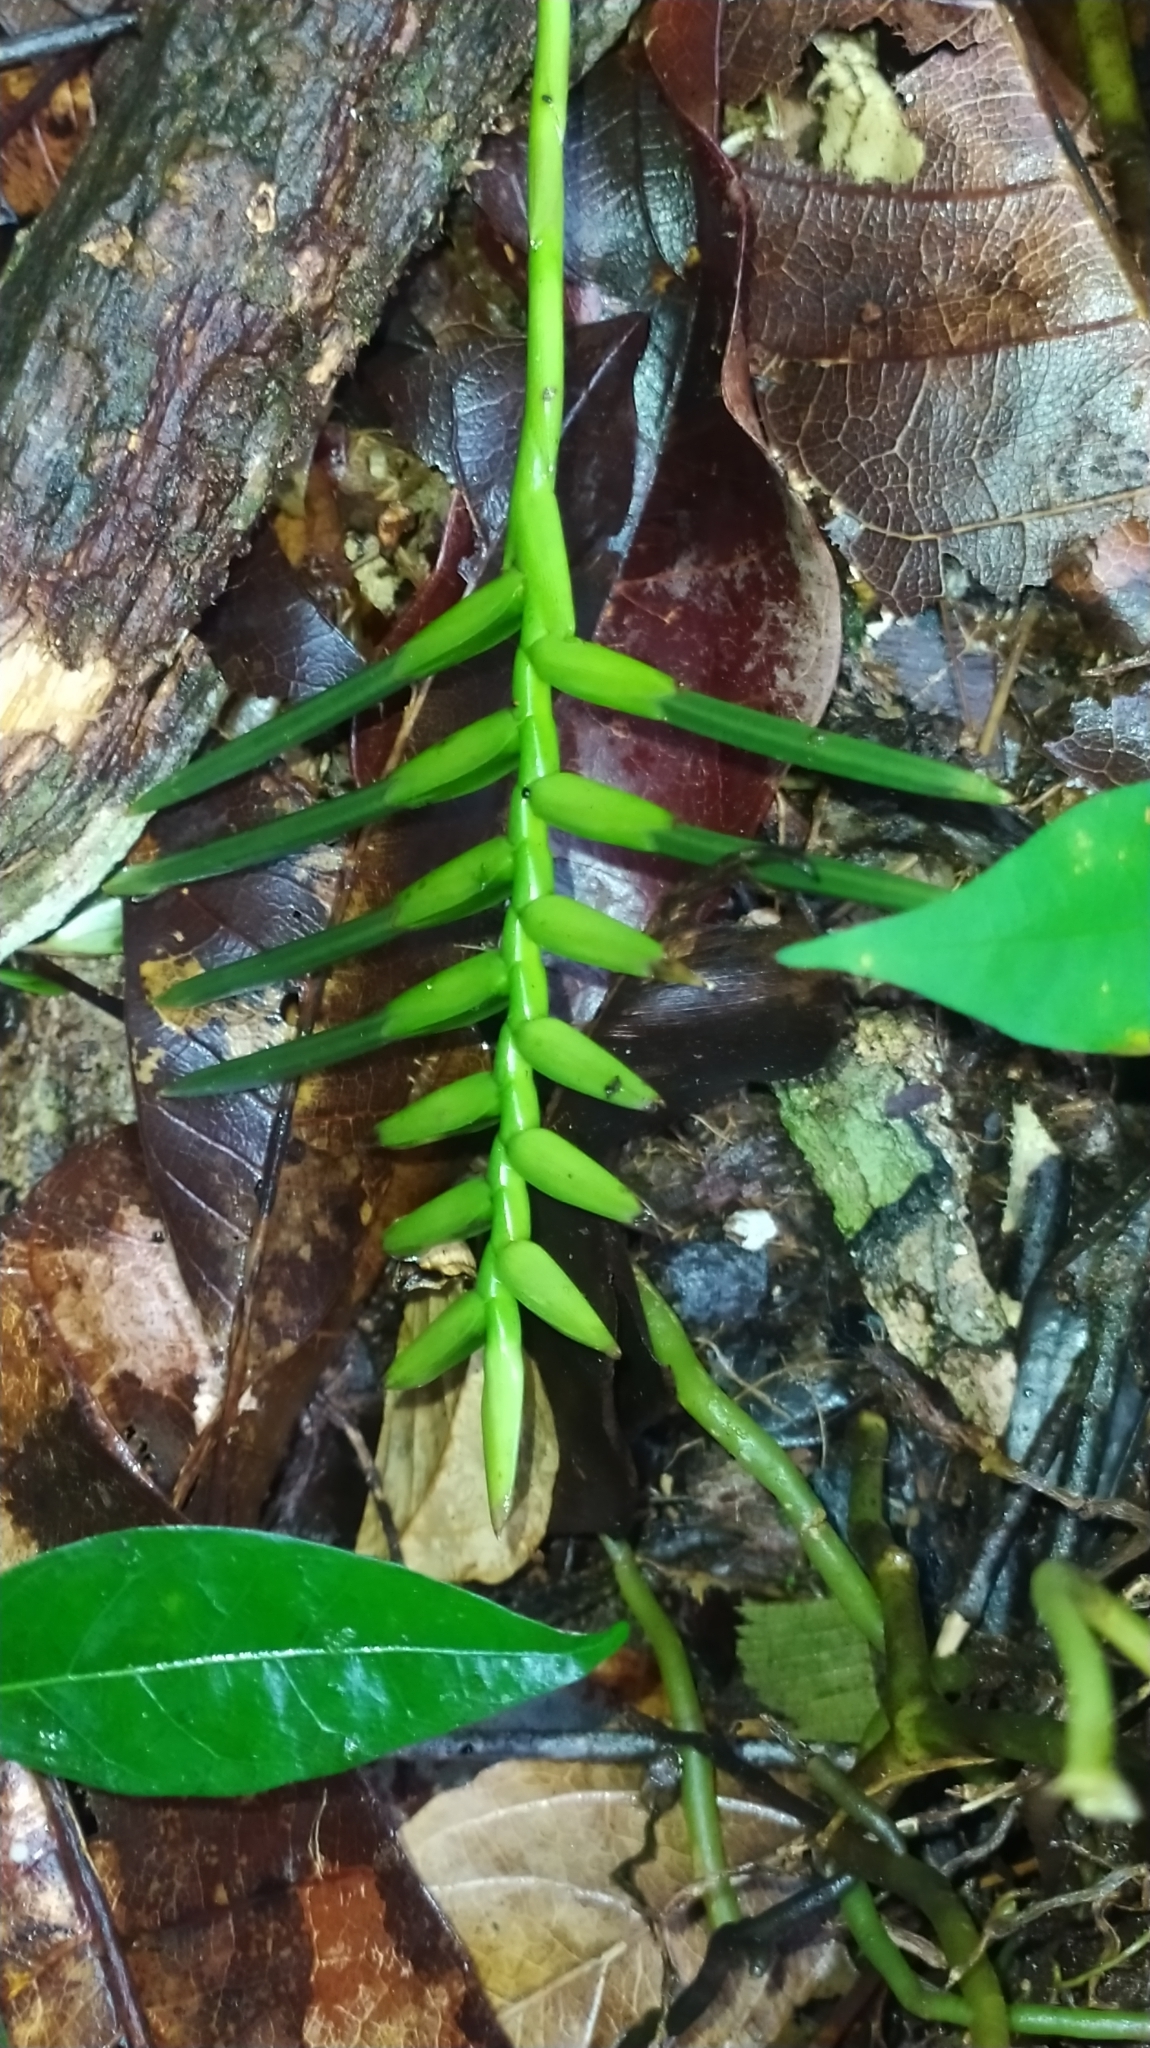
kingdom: Plantae
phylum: Tracheophyta
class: Liliopsida
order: Poales
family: Bromeliaceae
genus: Lemeltonia
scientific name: Lemeltonia monadelpha
